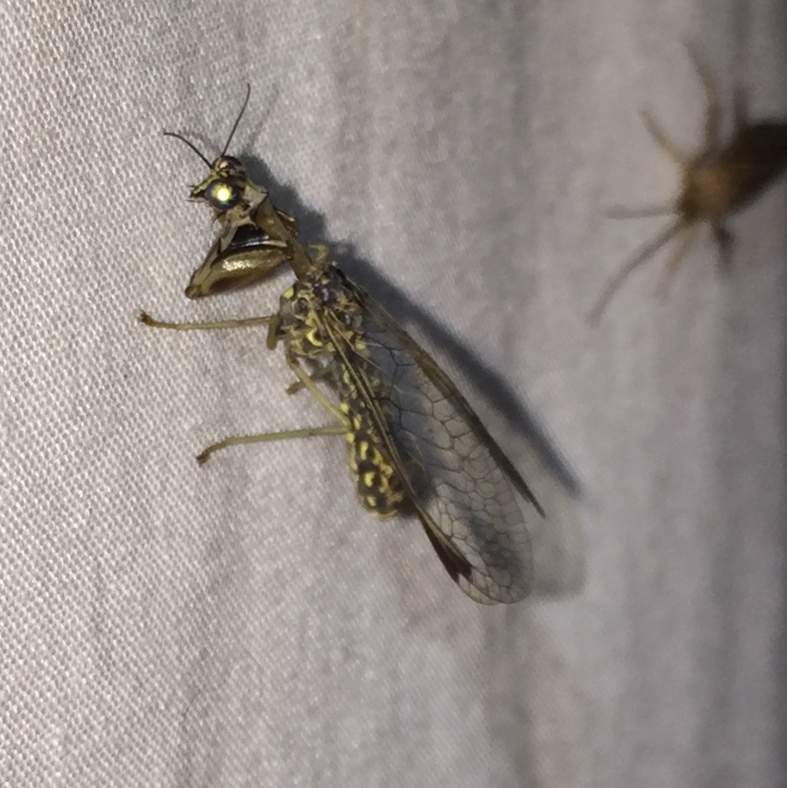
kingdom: Animalia
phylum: Arthropoda
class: Insecta
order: Neuroptera
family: Mantispidae
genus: Dicromantispa
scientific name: Dicromantispa sayi
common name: Say's mantidfly
